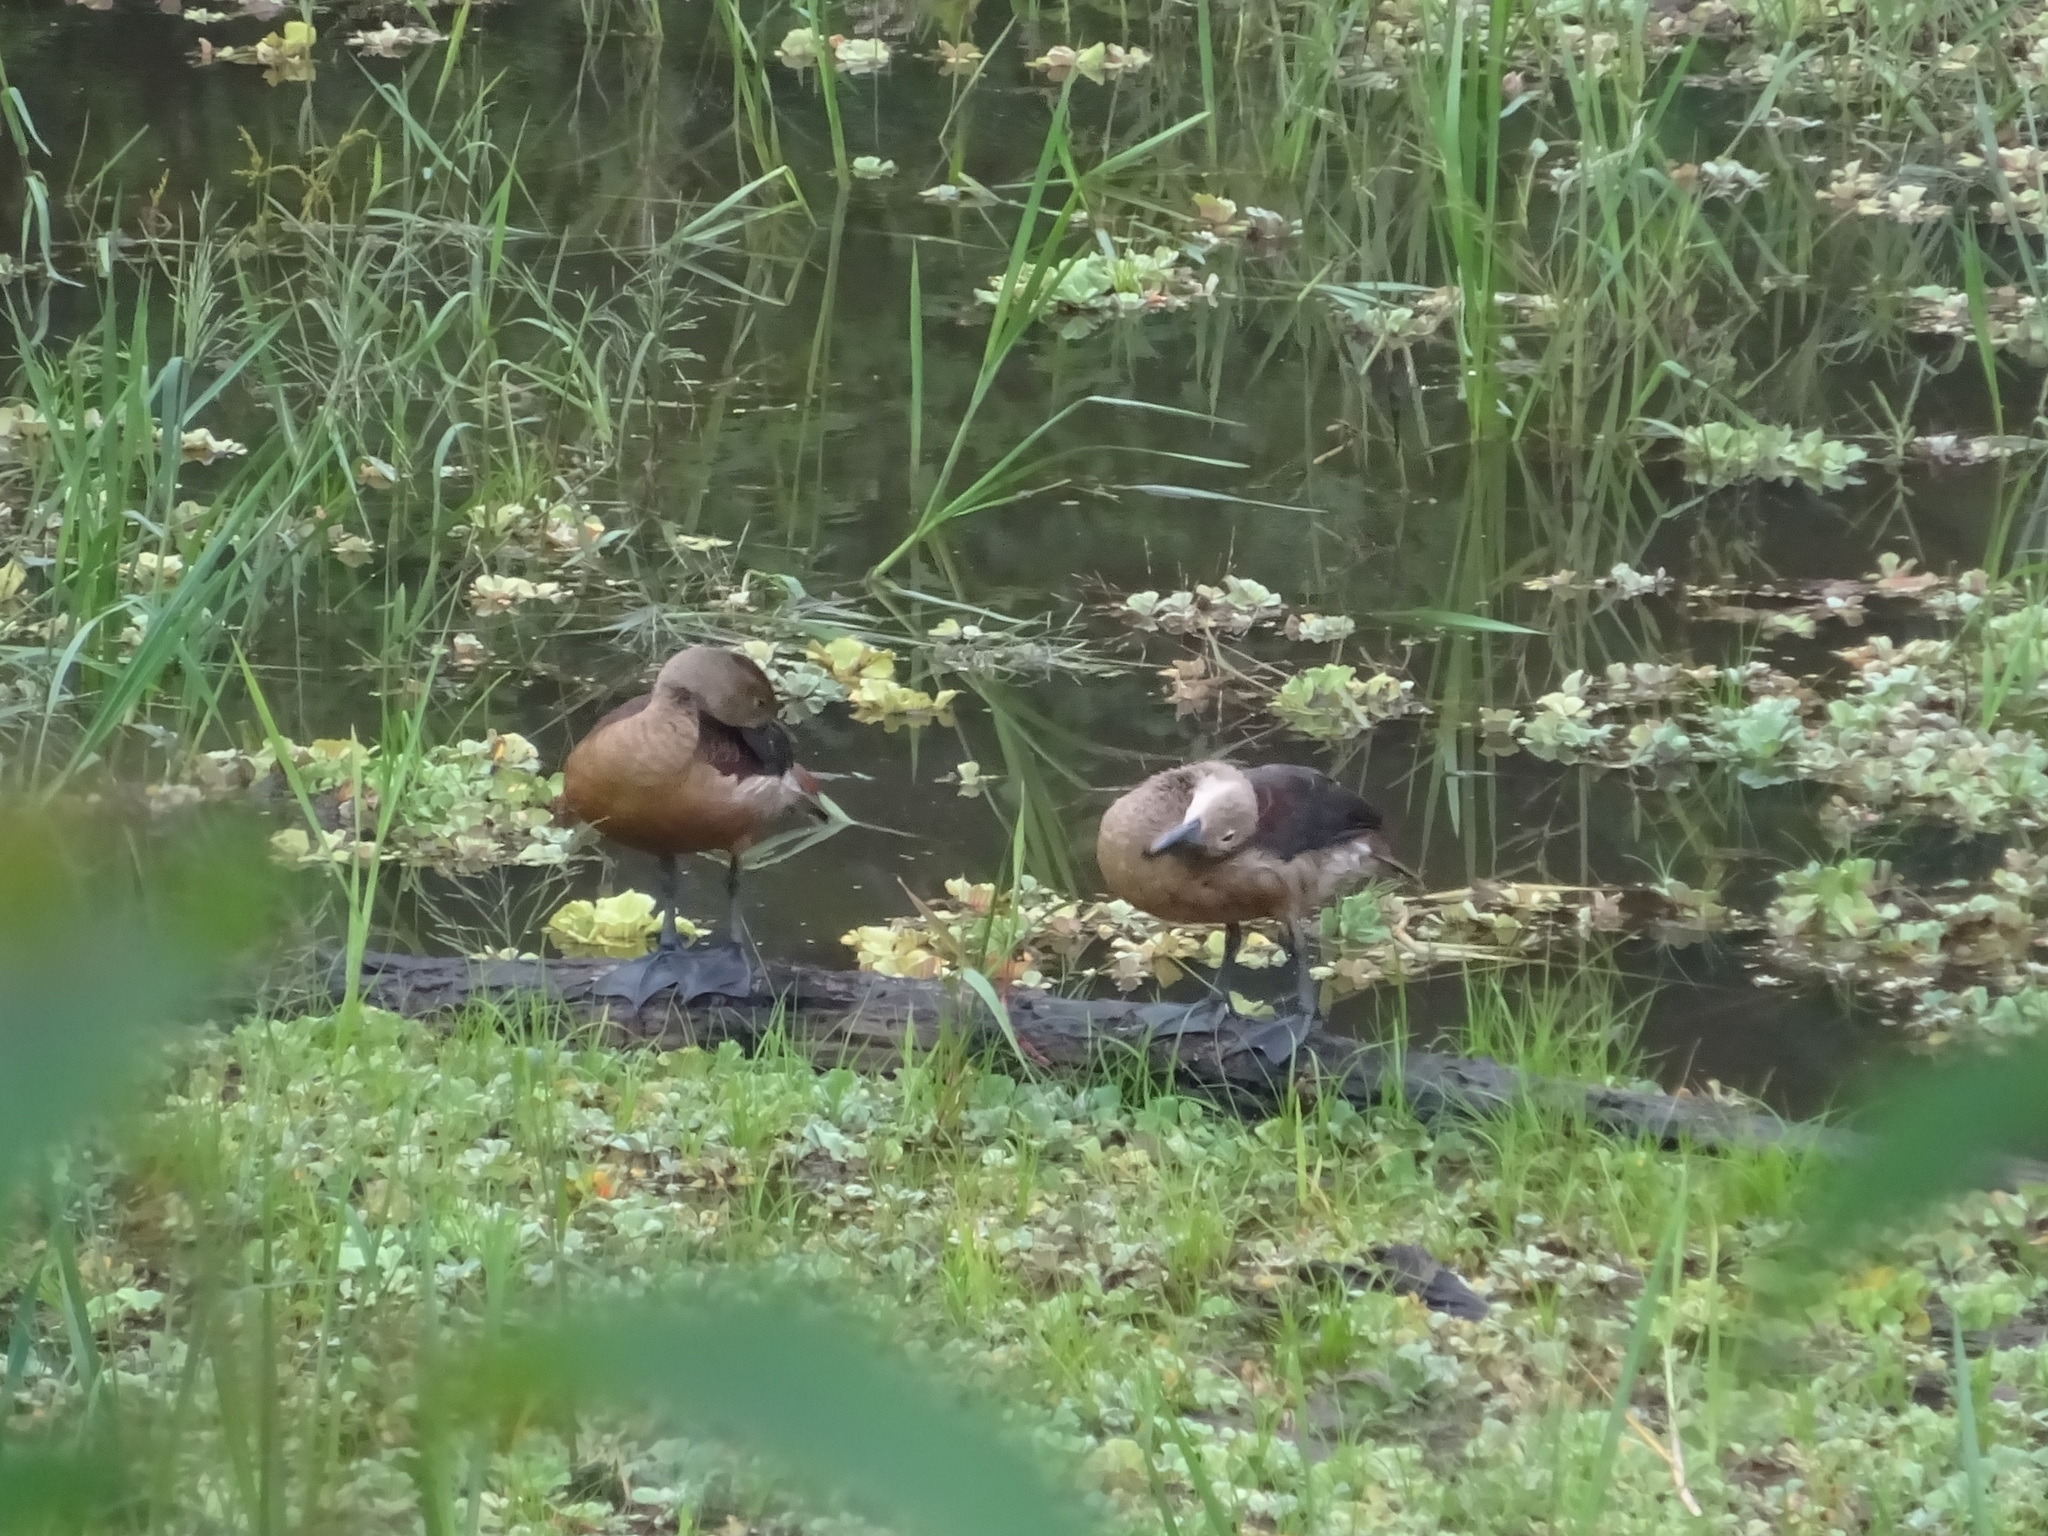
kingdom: Animalia
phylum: Chordata
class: Aves
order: Anseriformes
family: Anatidae
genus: Dendrocygna
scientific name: Dendrocygna javanica
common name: Lesser whistling-duck
